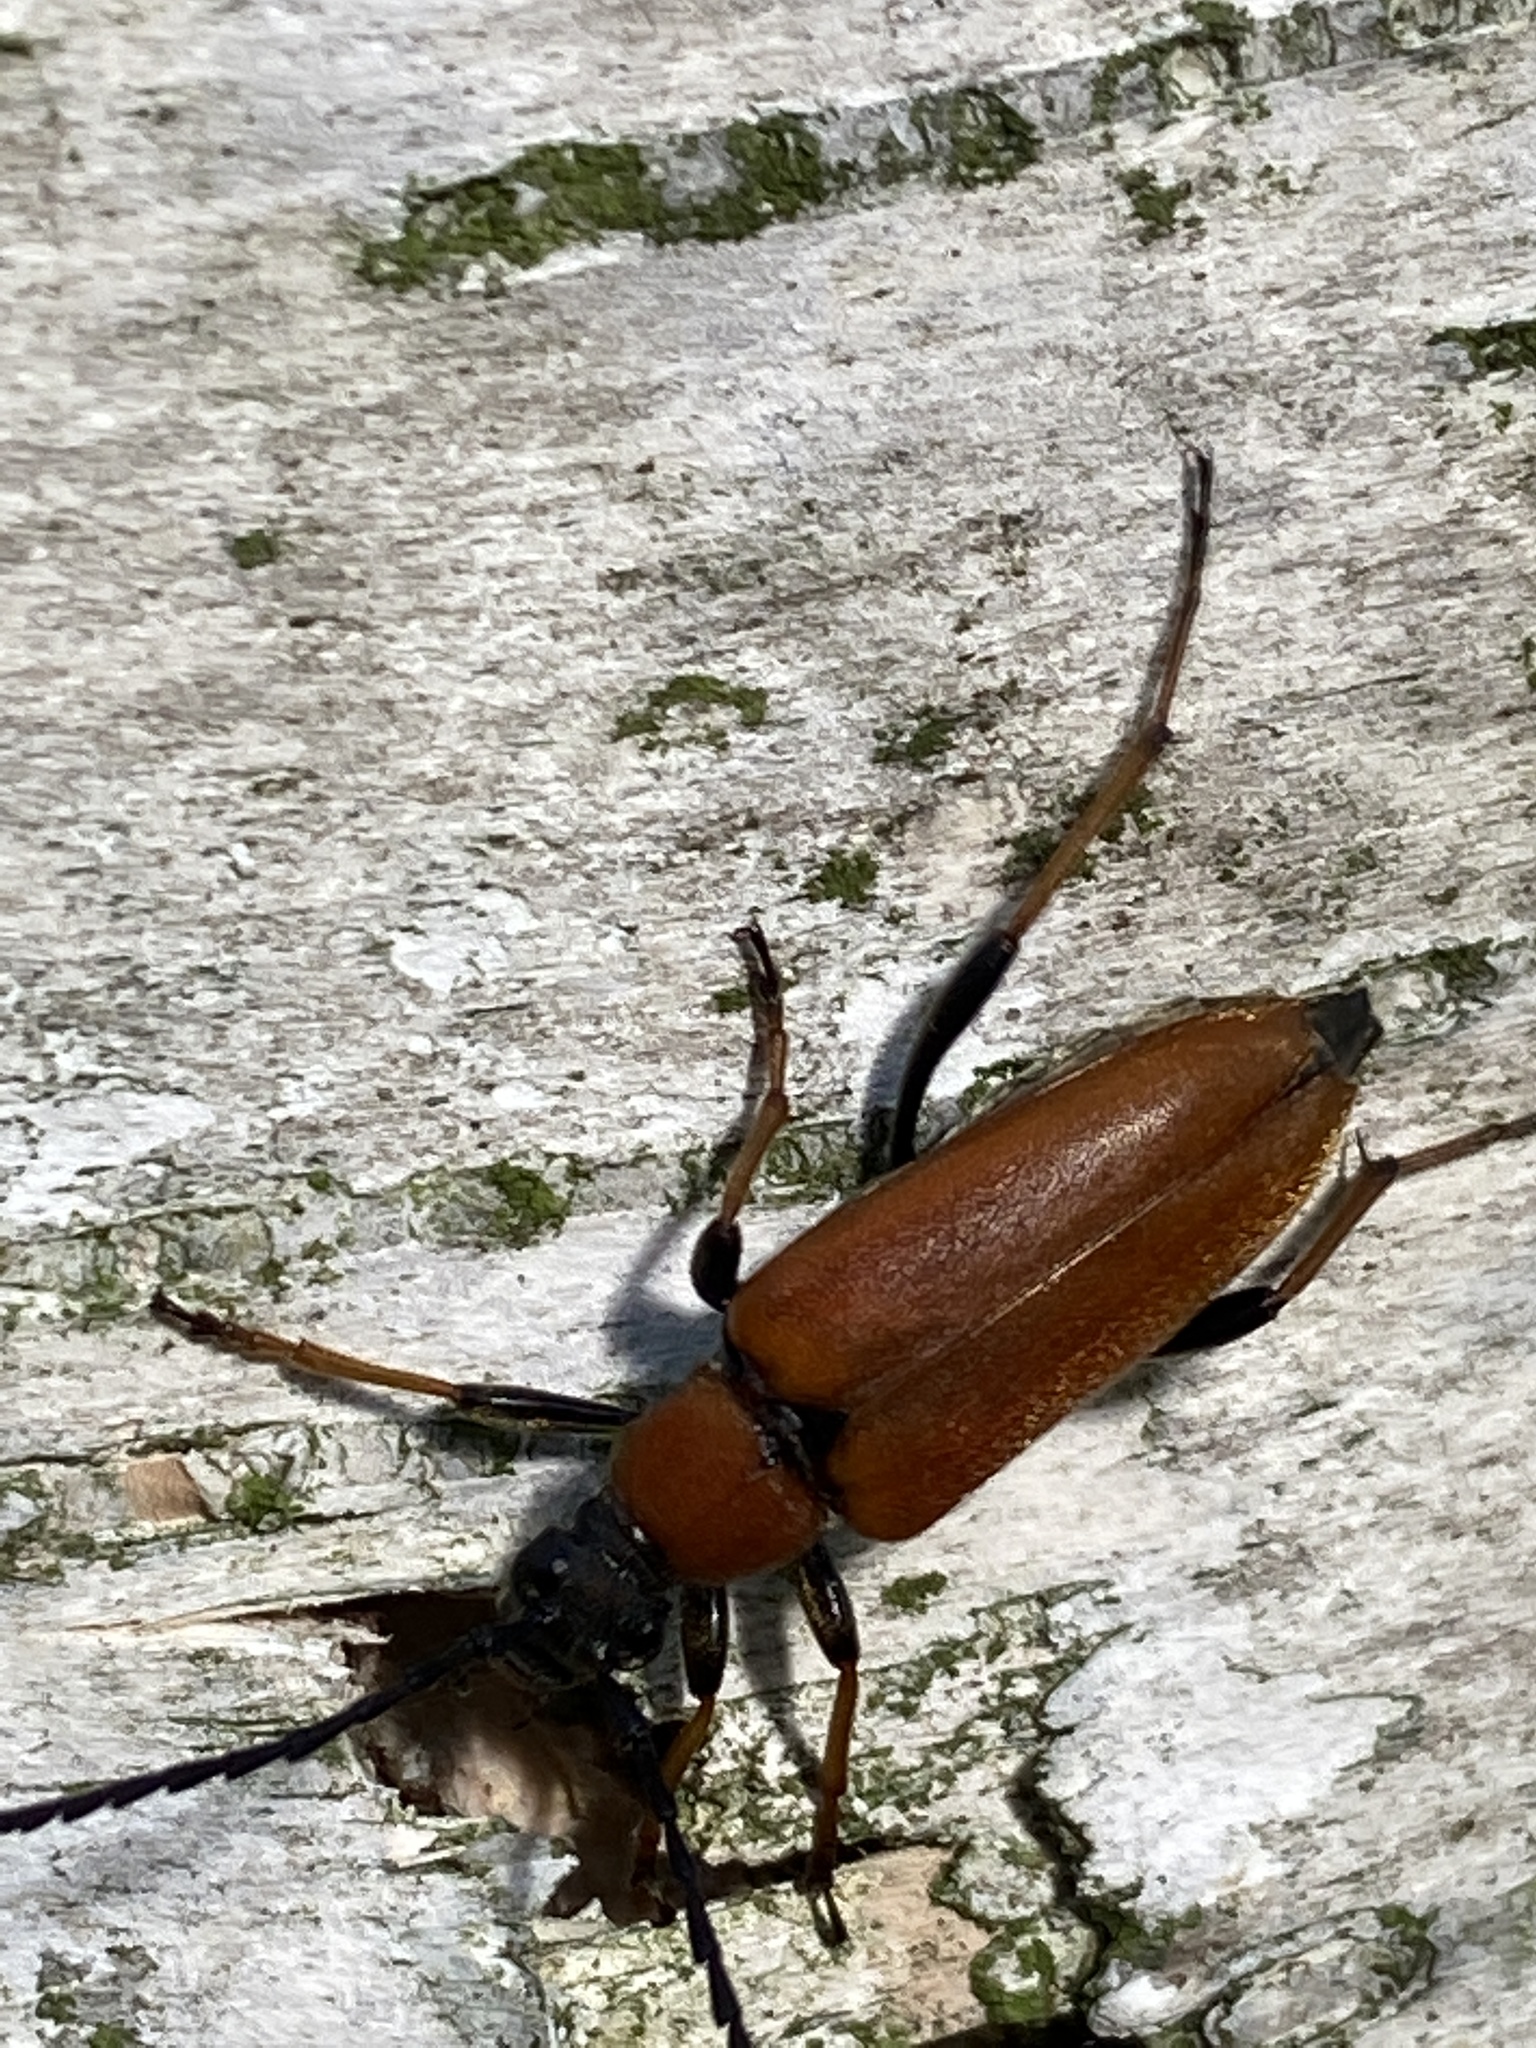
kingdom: Animalia
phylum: Arthropoda
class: Insecta
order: Coleoptera
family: Cerambycidae
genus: Stictoleptura
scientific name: Stictoleptura rubra
